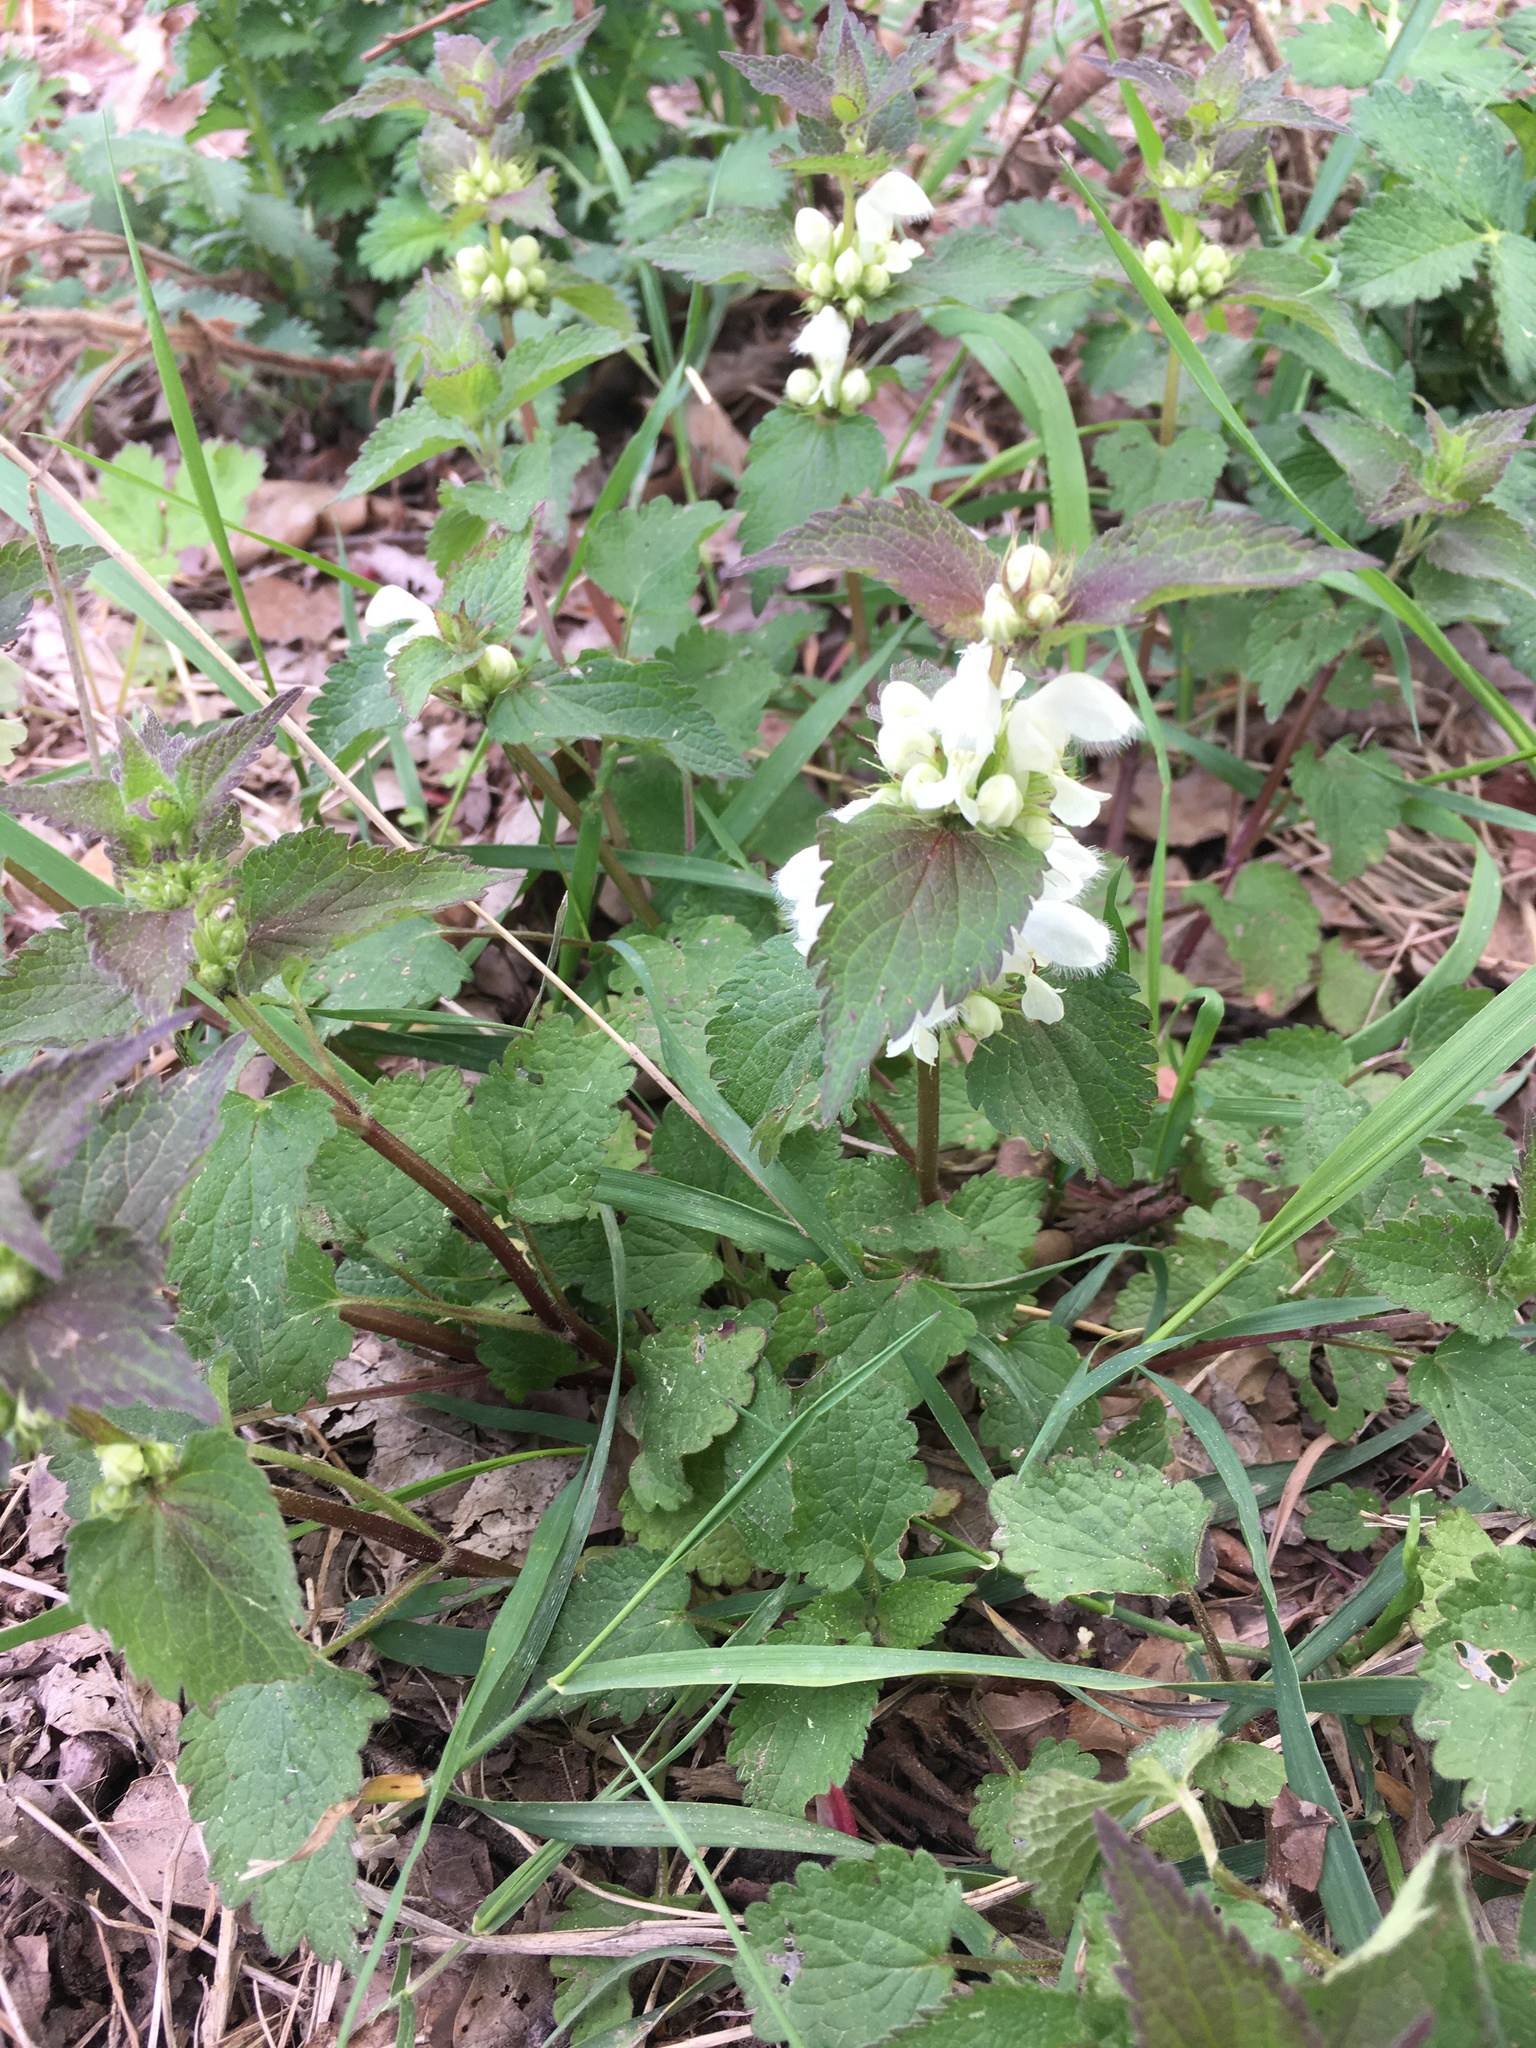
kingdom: Plantae
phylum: Tracheophyta
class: Magnoliopsida
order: Lamiales
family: Lamiaceae
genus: Lamium
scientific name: Lamium album
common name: White dead-nettle
